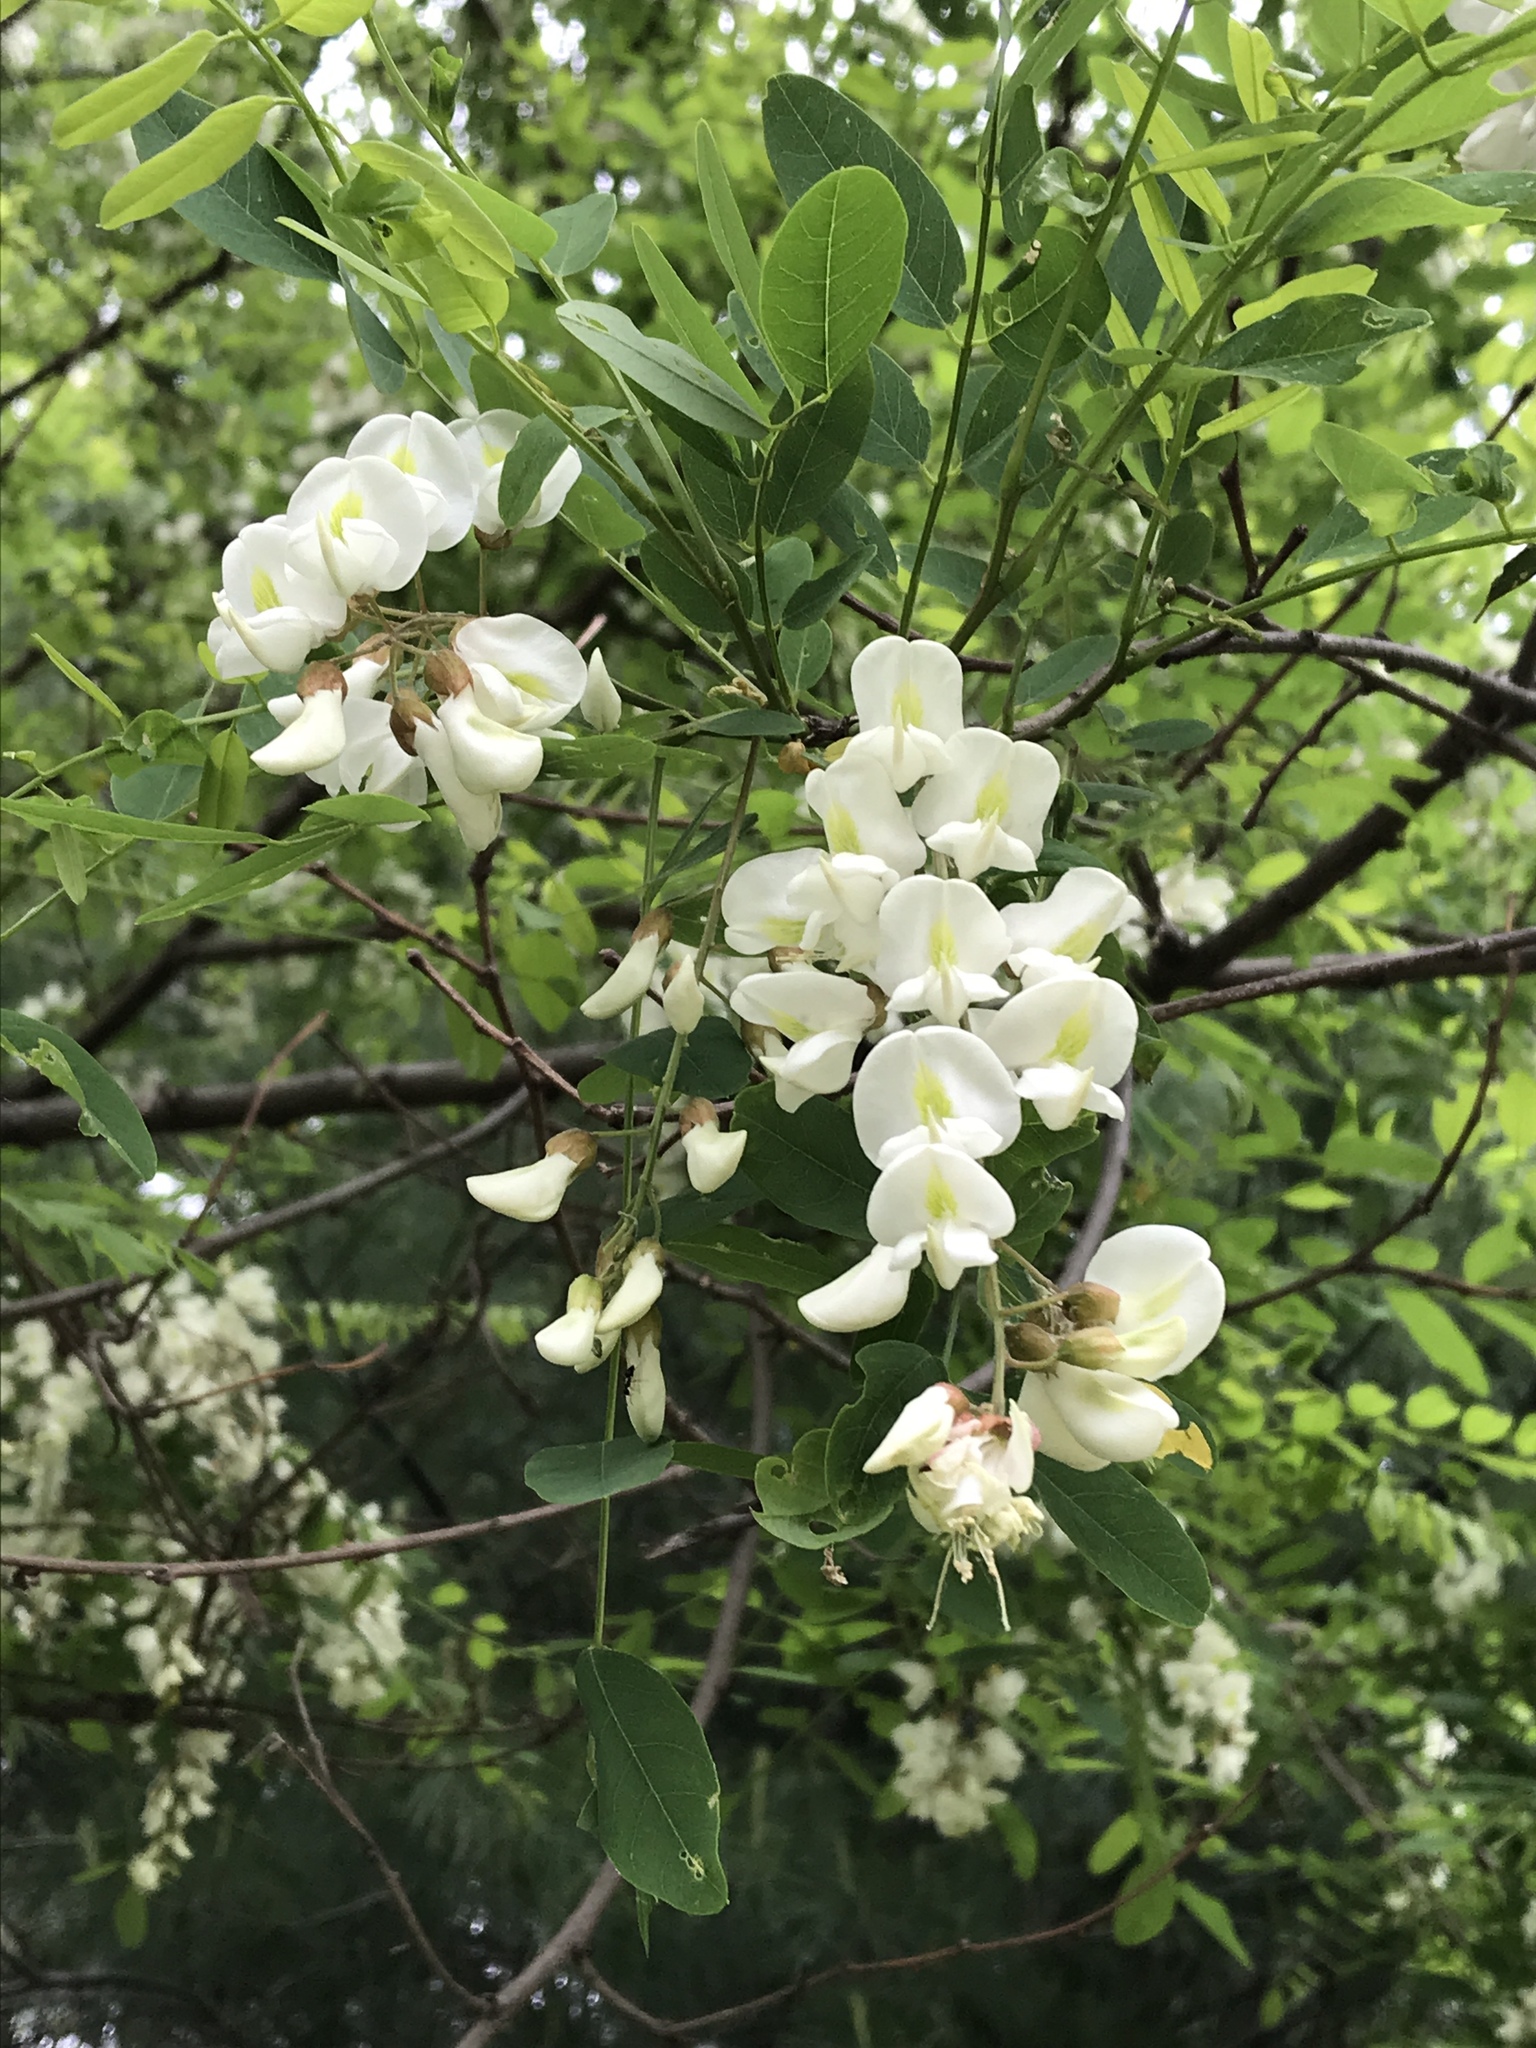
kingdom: Plantae
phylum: Tracheophyta
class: Magnoliopsida
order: Fabales
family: Fabaceae
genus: Robinia
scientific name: Robinia pseudoacacia
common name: Black locust
